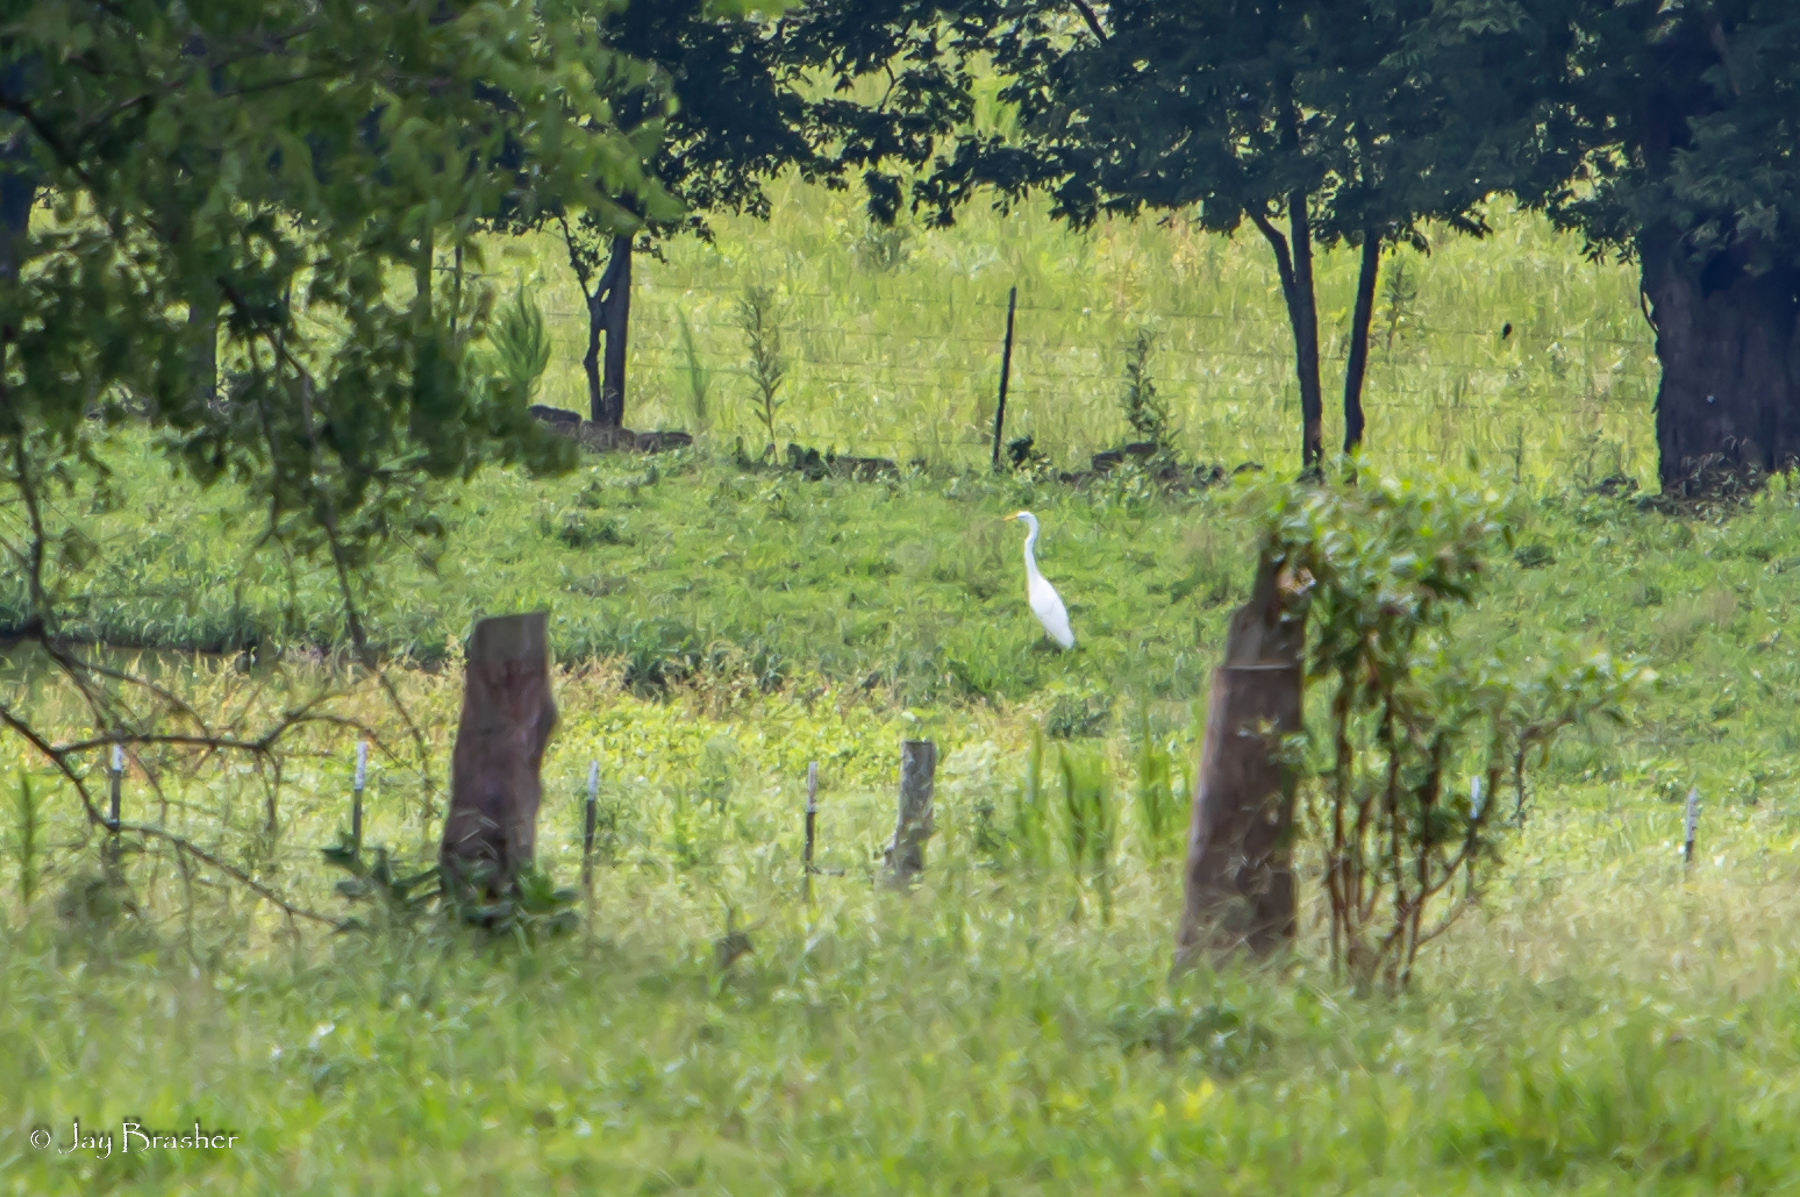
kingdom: Animalia
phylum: Chordata
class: Aves
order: Pelecaniformes
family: Ardeidae
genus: Ardea
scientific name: Ardea alba
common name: Great egret
